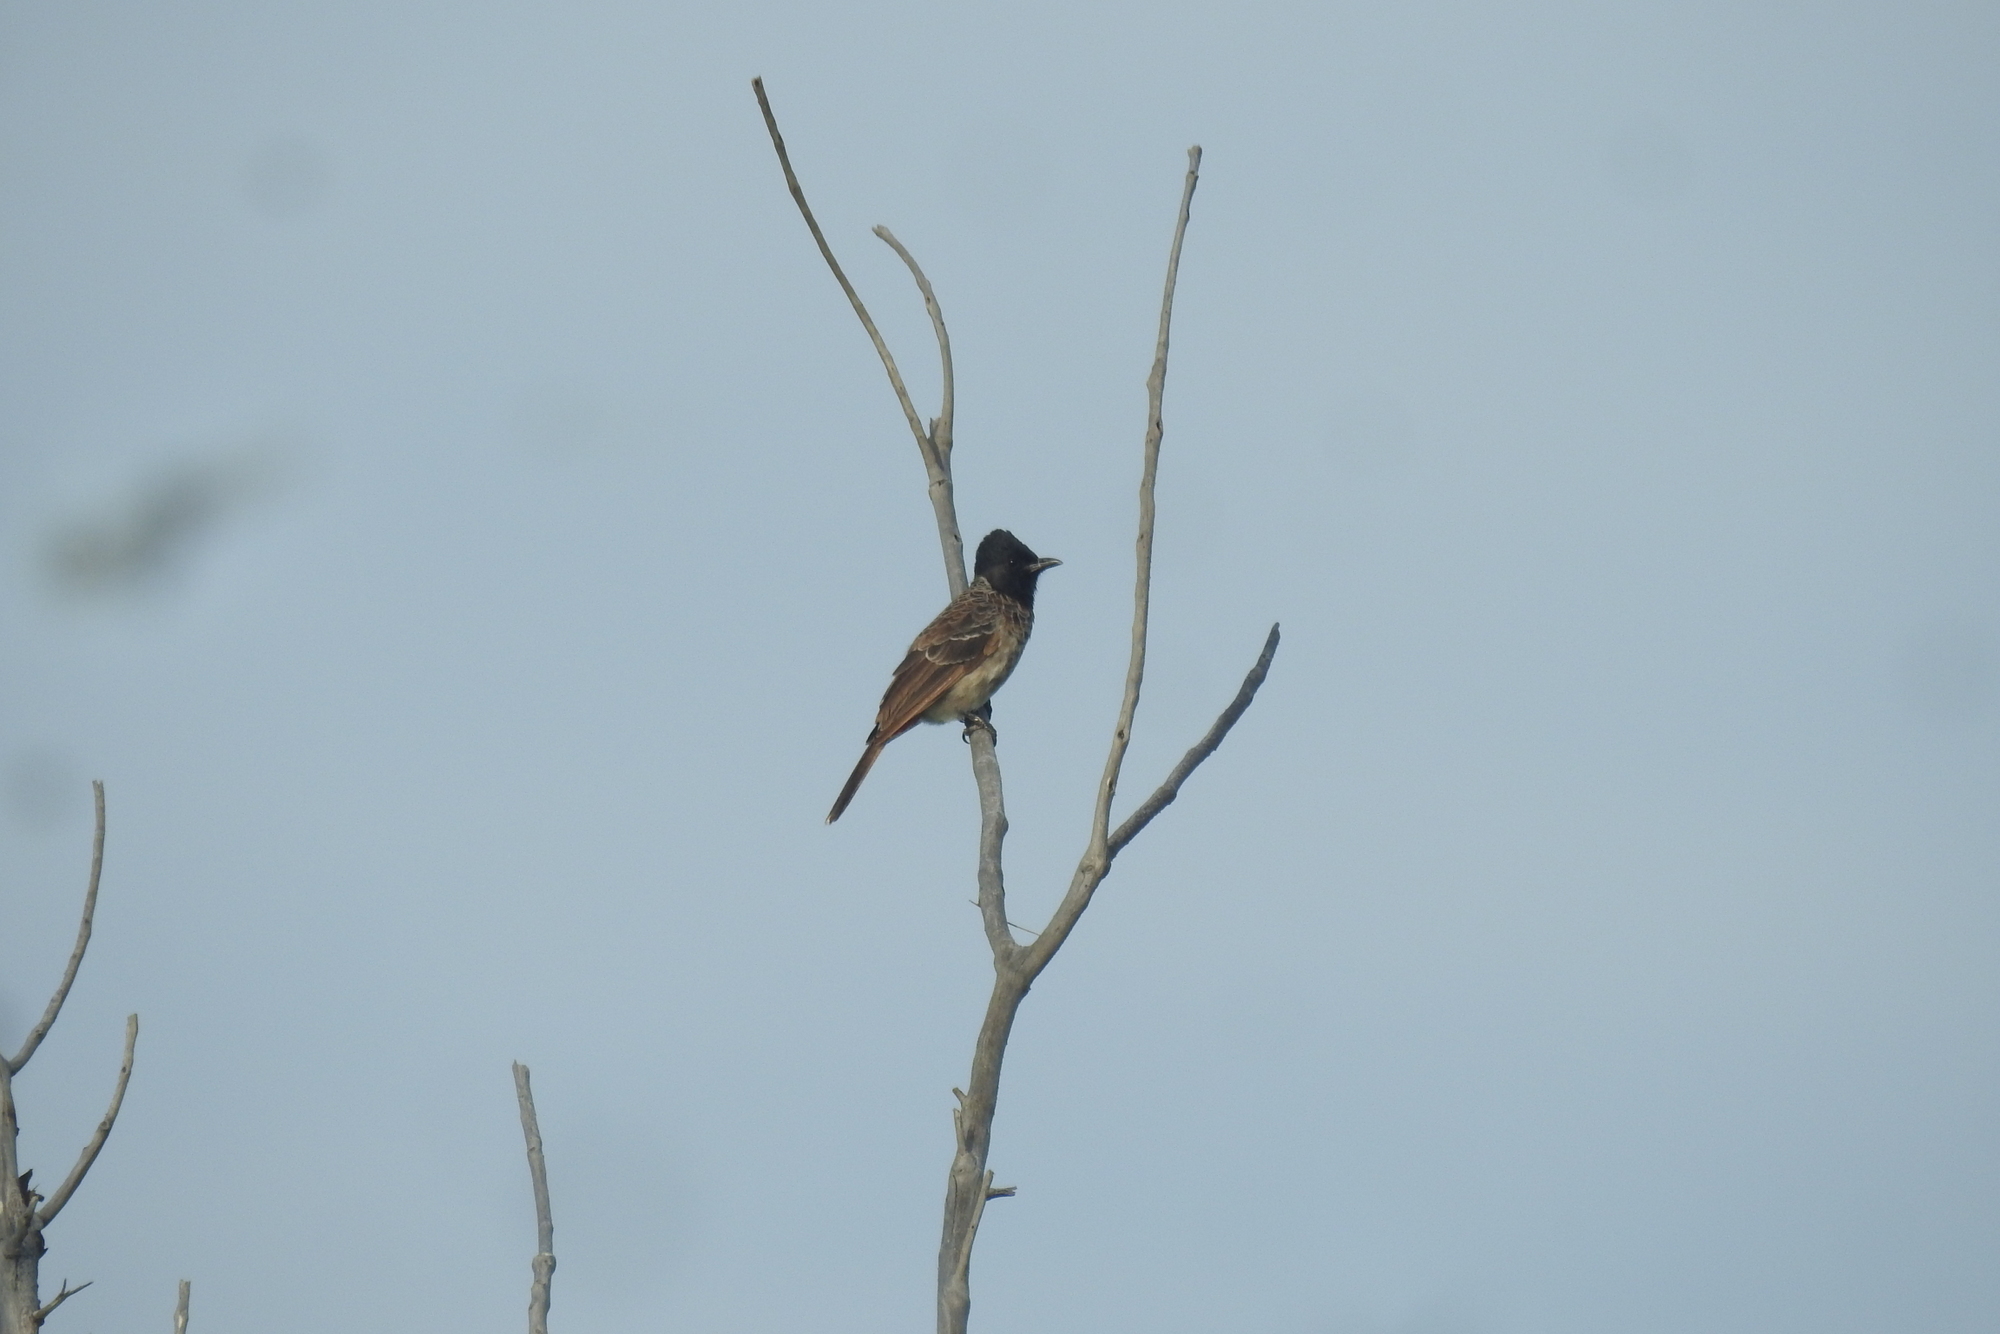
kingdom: Animalia
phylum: Chordata
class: Aves
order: Passeriformes
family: Pycnonotidae
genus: Pycnonotus
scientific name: Pycnonotus cafer
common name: Red-vented bulbul
